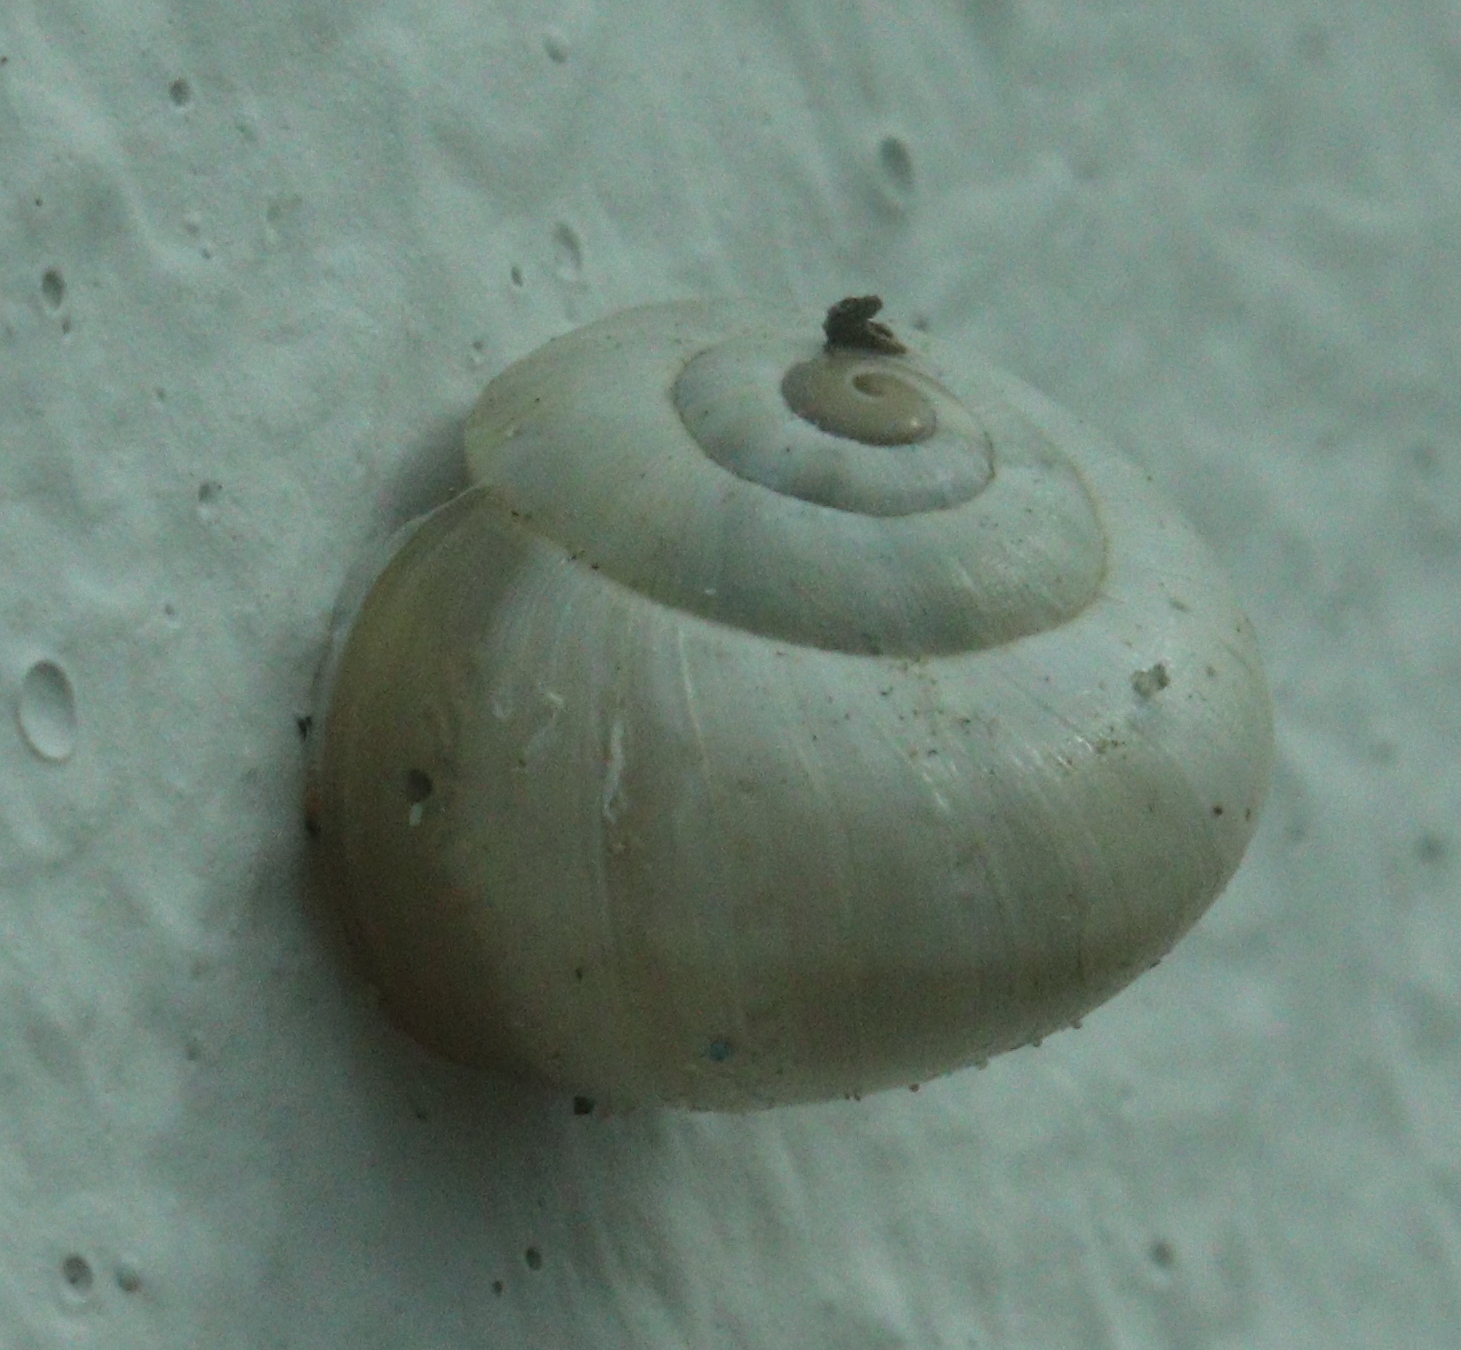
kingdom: Animalia
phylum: Mollusca
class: Gastropoda
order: Stylommatophora
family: Helicidae
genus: Theba
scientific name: Theba pisana
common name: White snail
